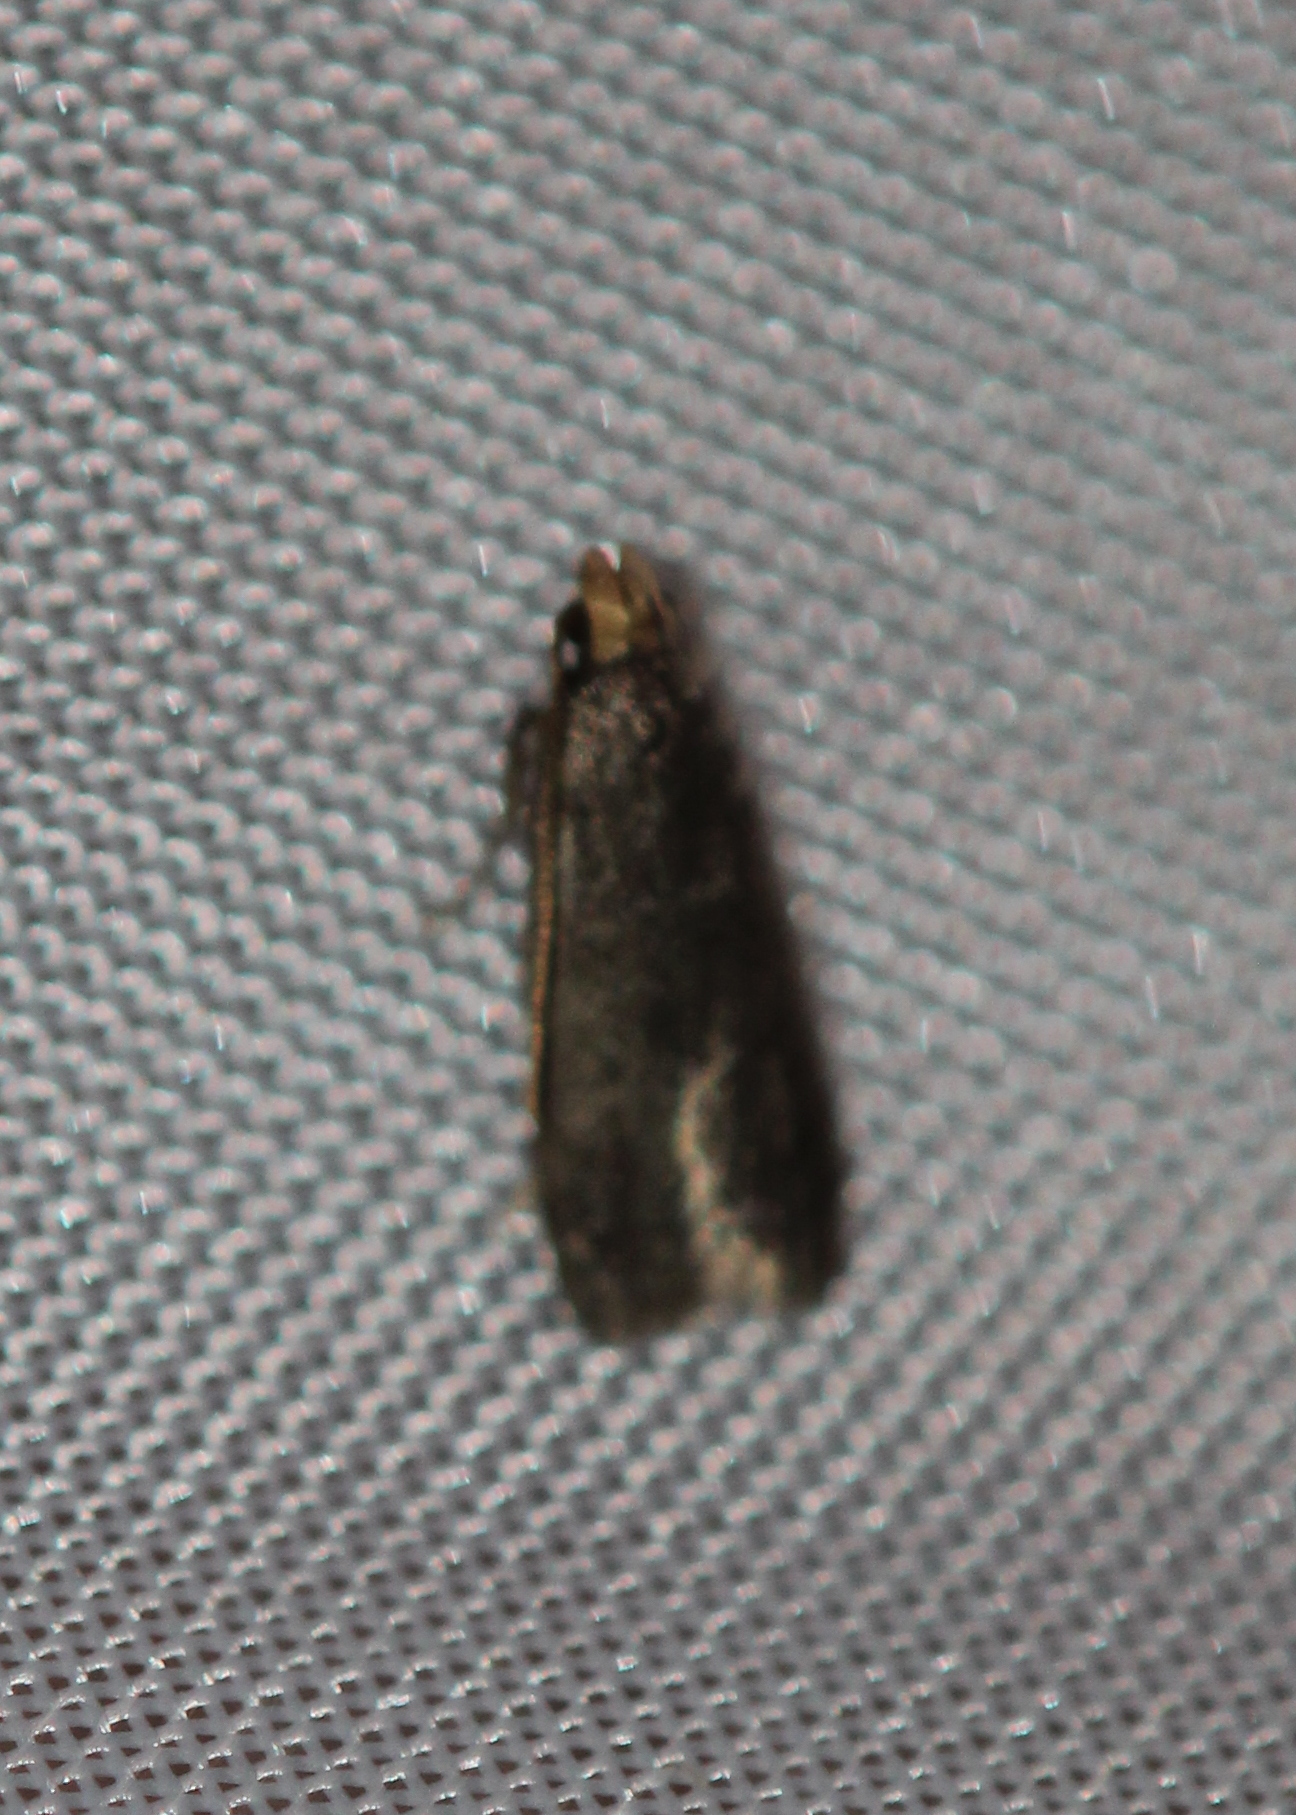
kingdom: Animalia
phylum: Arthropoda
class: Insecta
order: Lepidoptera
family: Autostichidae
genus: Glyphidocera
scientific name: Glyphidocera lithodoxa
